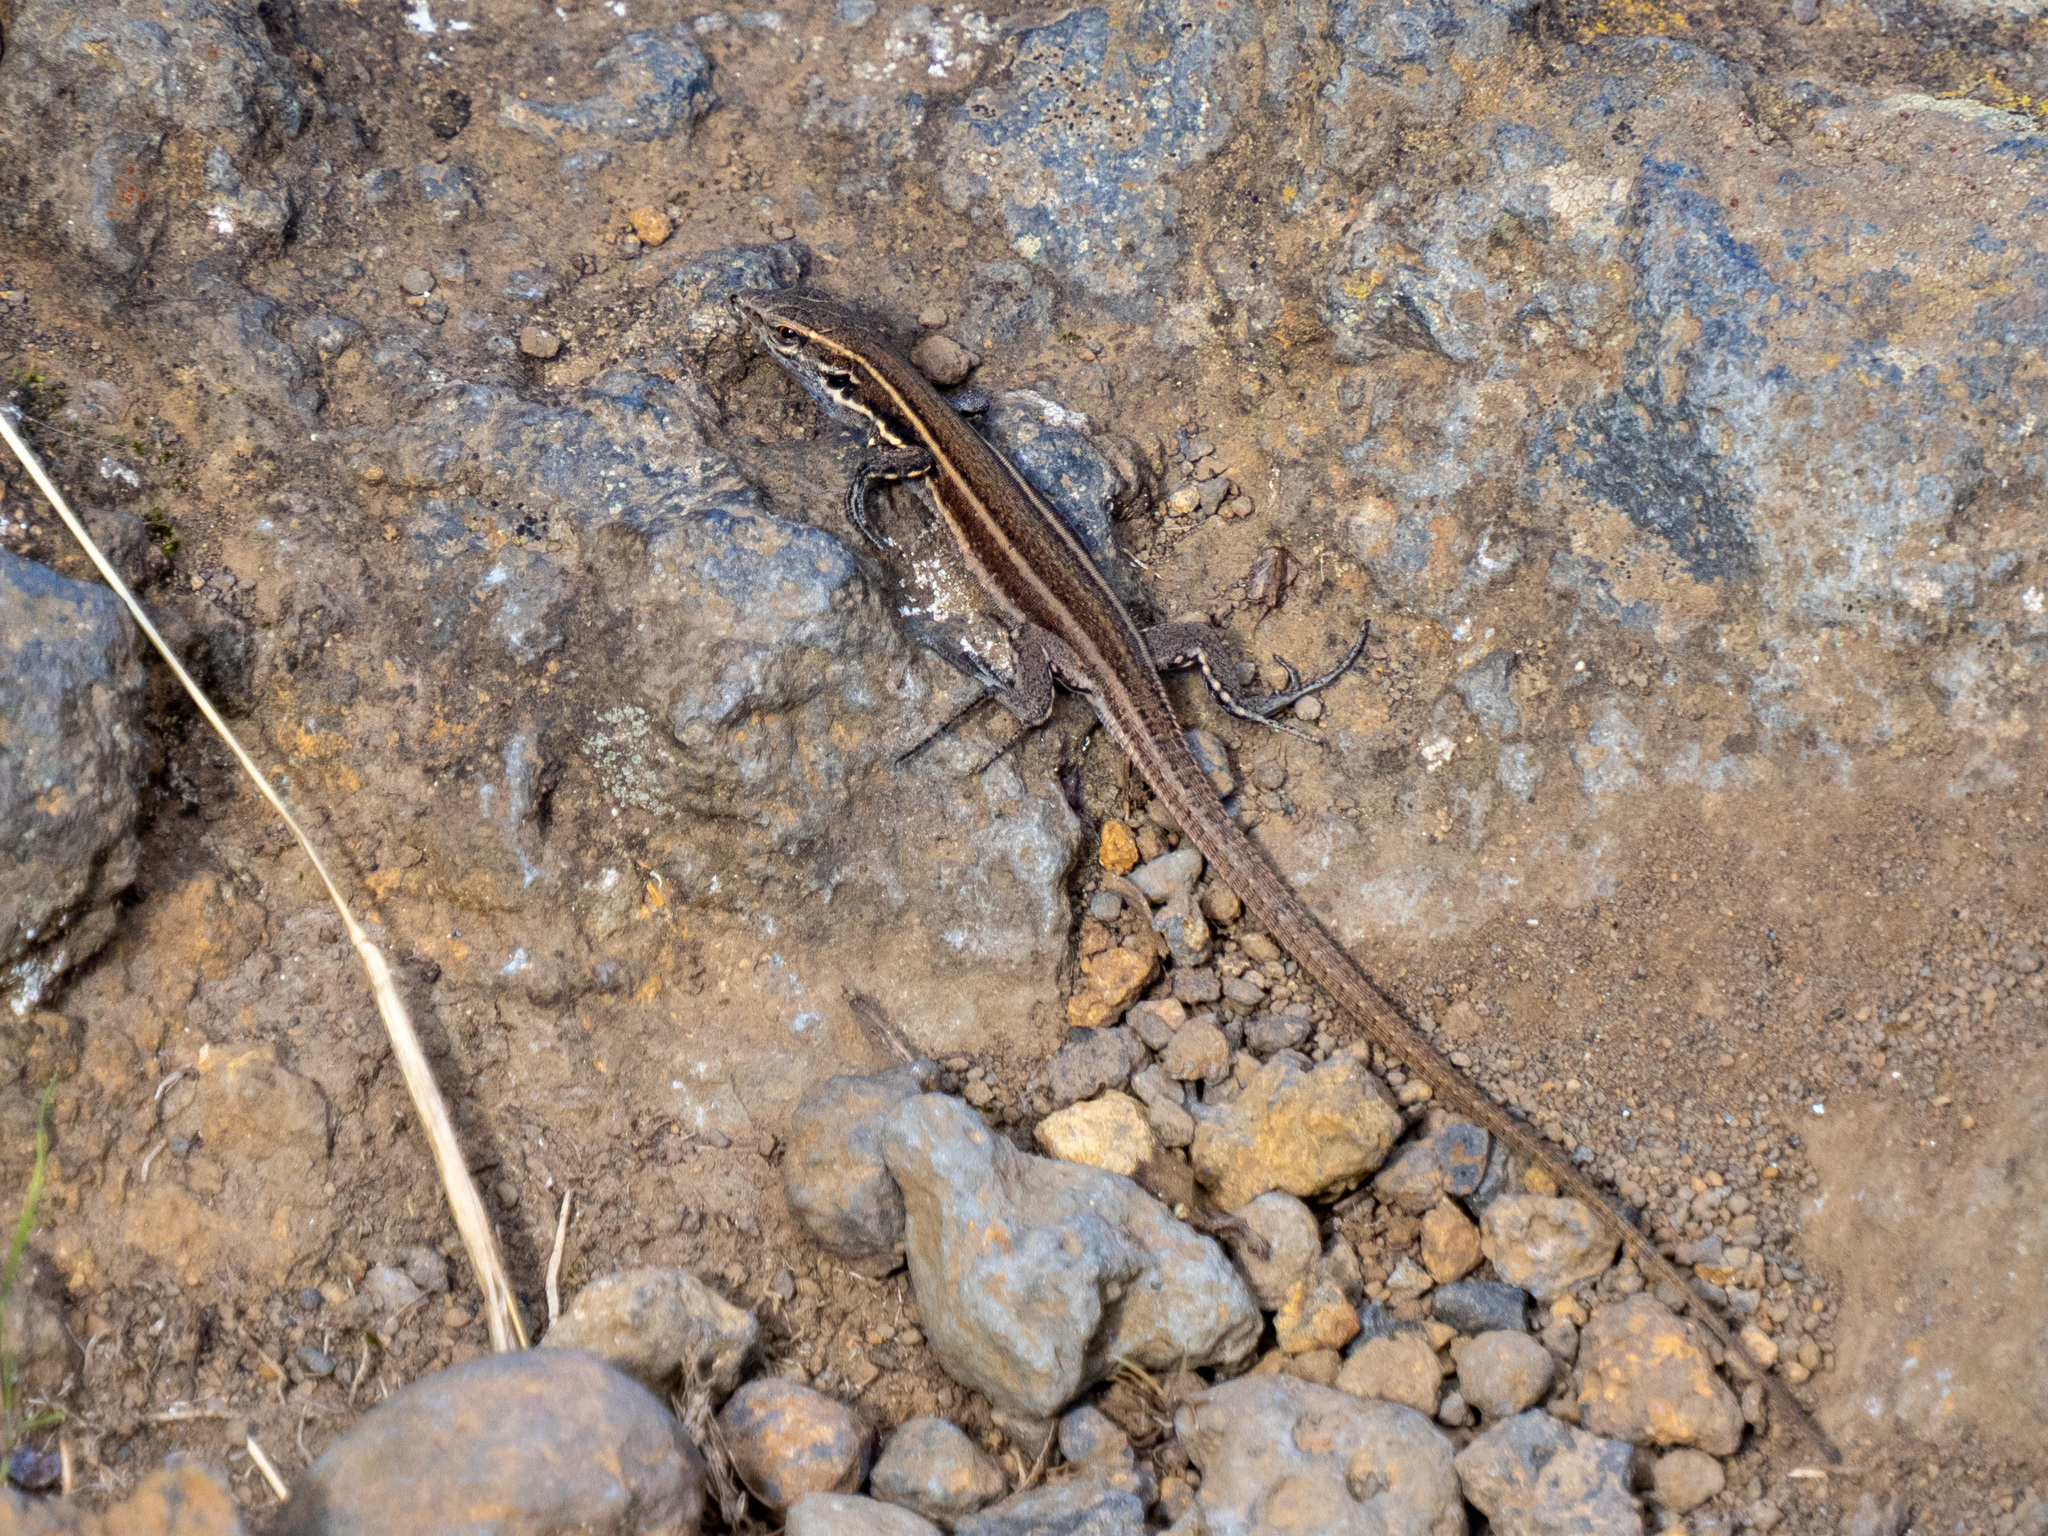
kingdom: Animalia
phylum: Chordata
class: Squamata
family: Lacertidae
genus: Gallotia
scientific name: Gallotia caesaris
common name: Boettger's lizard
